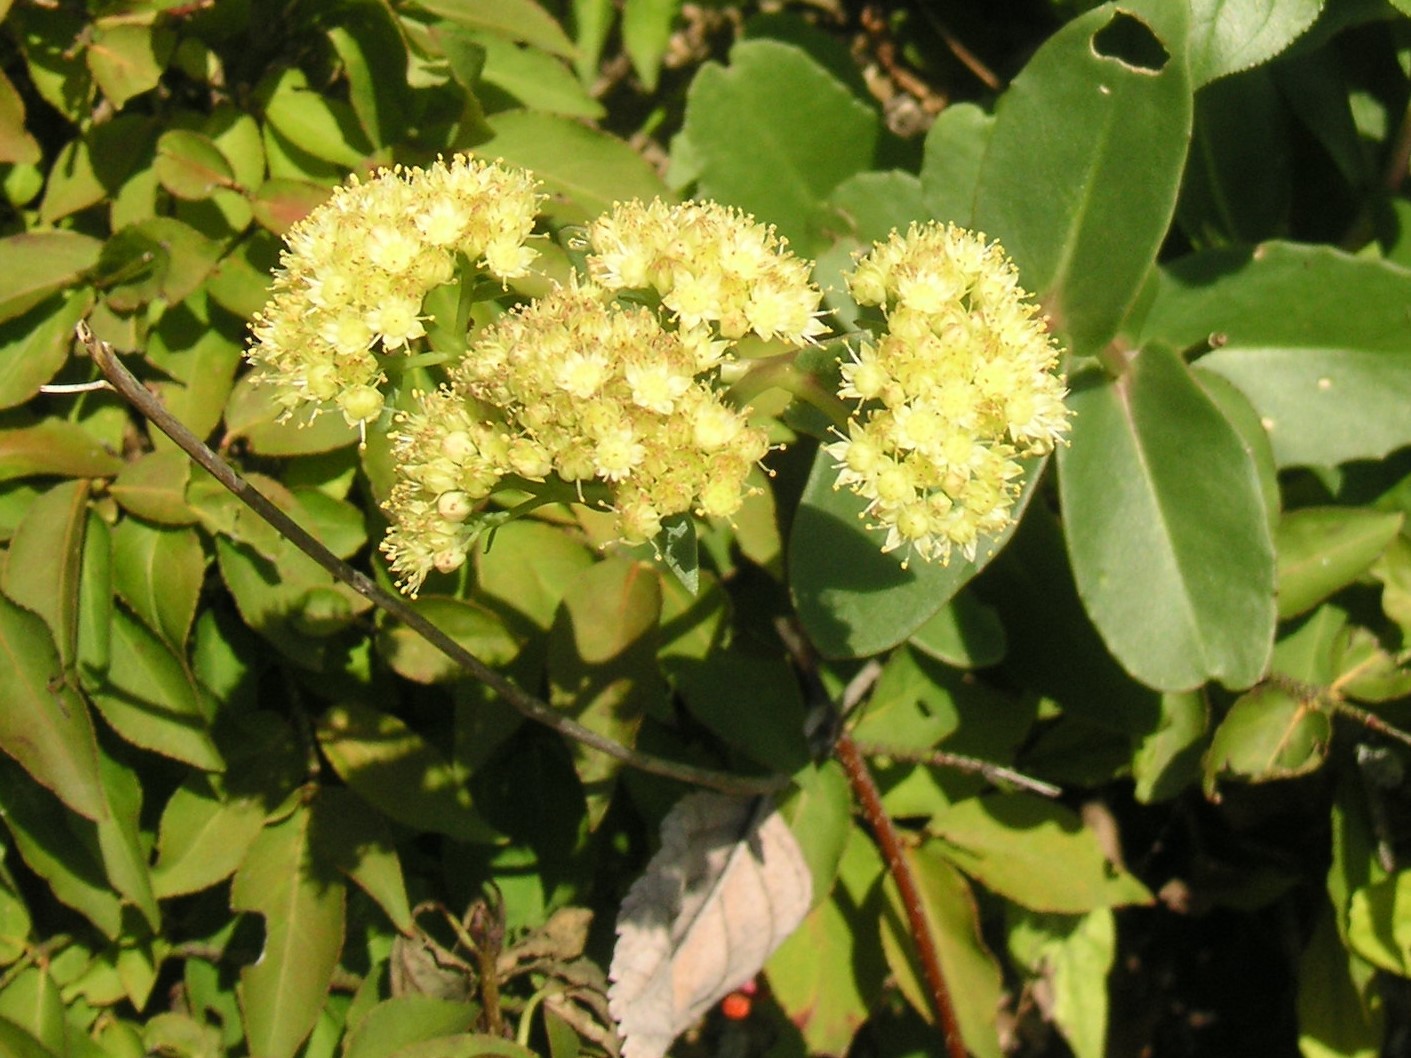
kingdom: Plantae
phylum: Tracheophyta
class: Magnoliopsida
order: Saxifragales
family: Crassulaceae
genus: Hylotelephium
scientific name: Hylotelephium maximum
